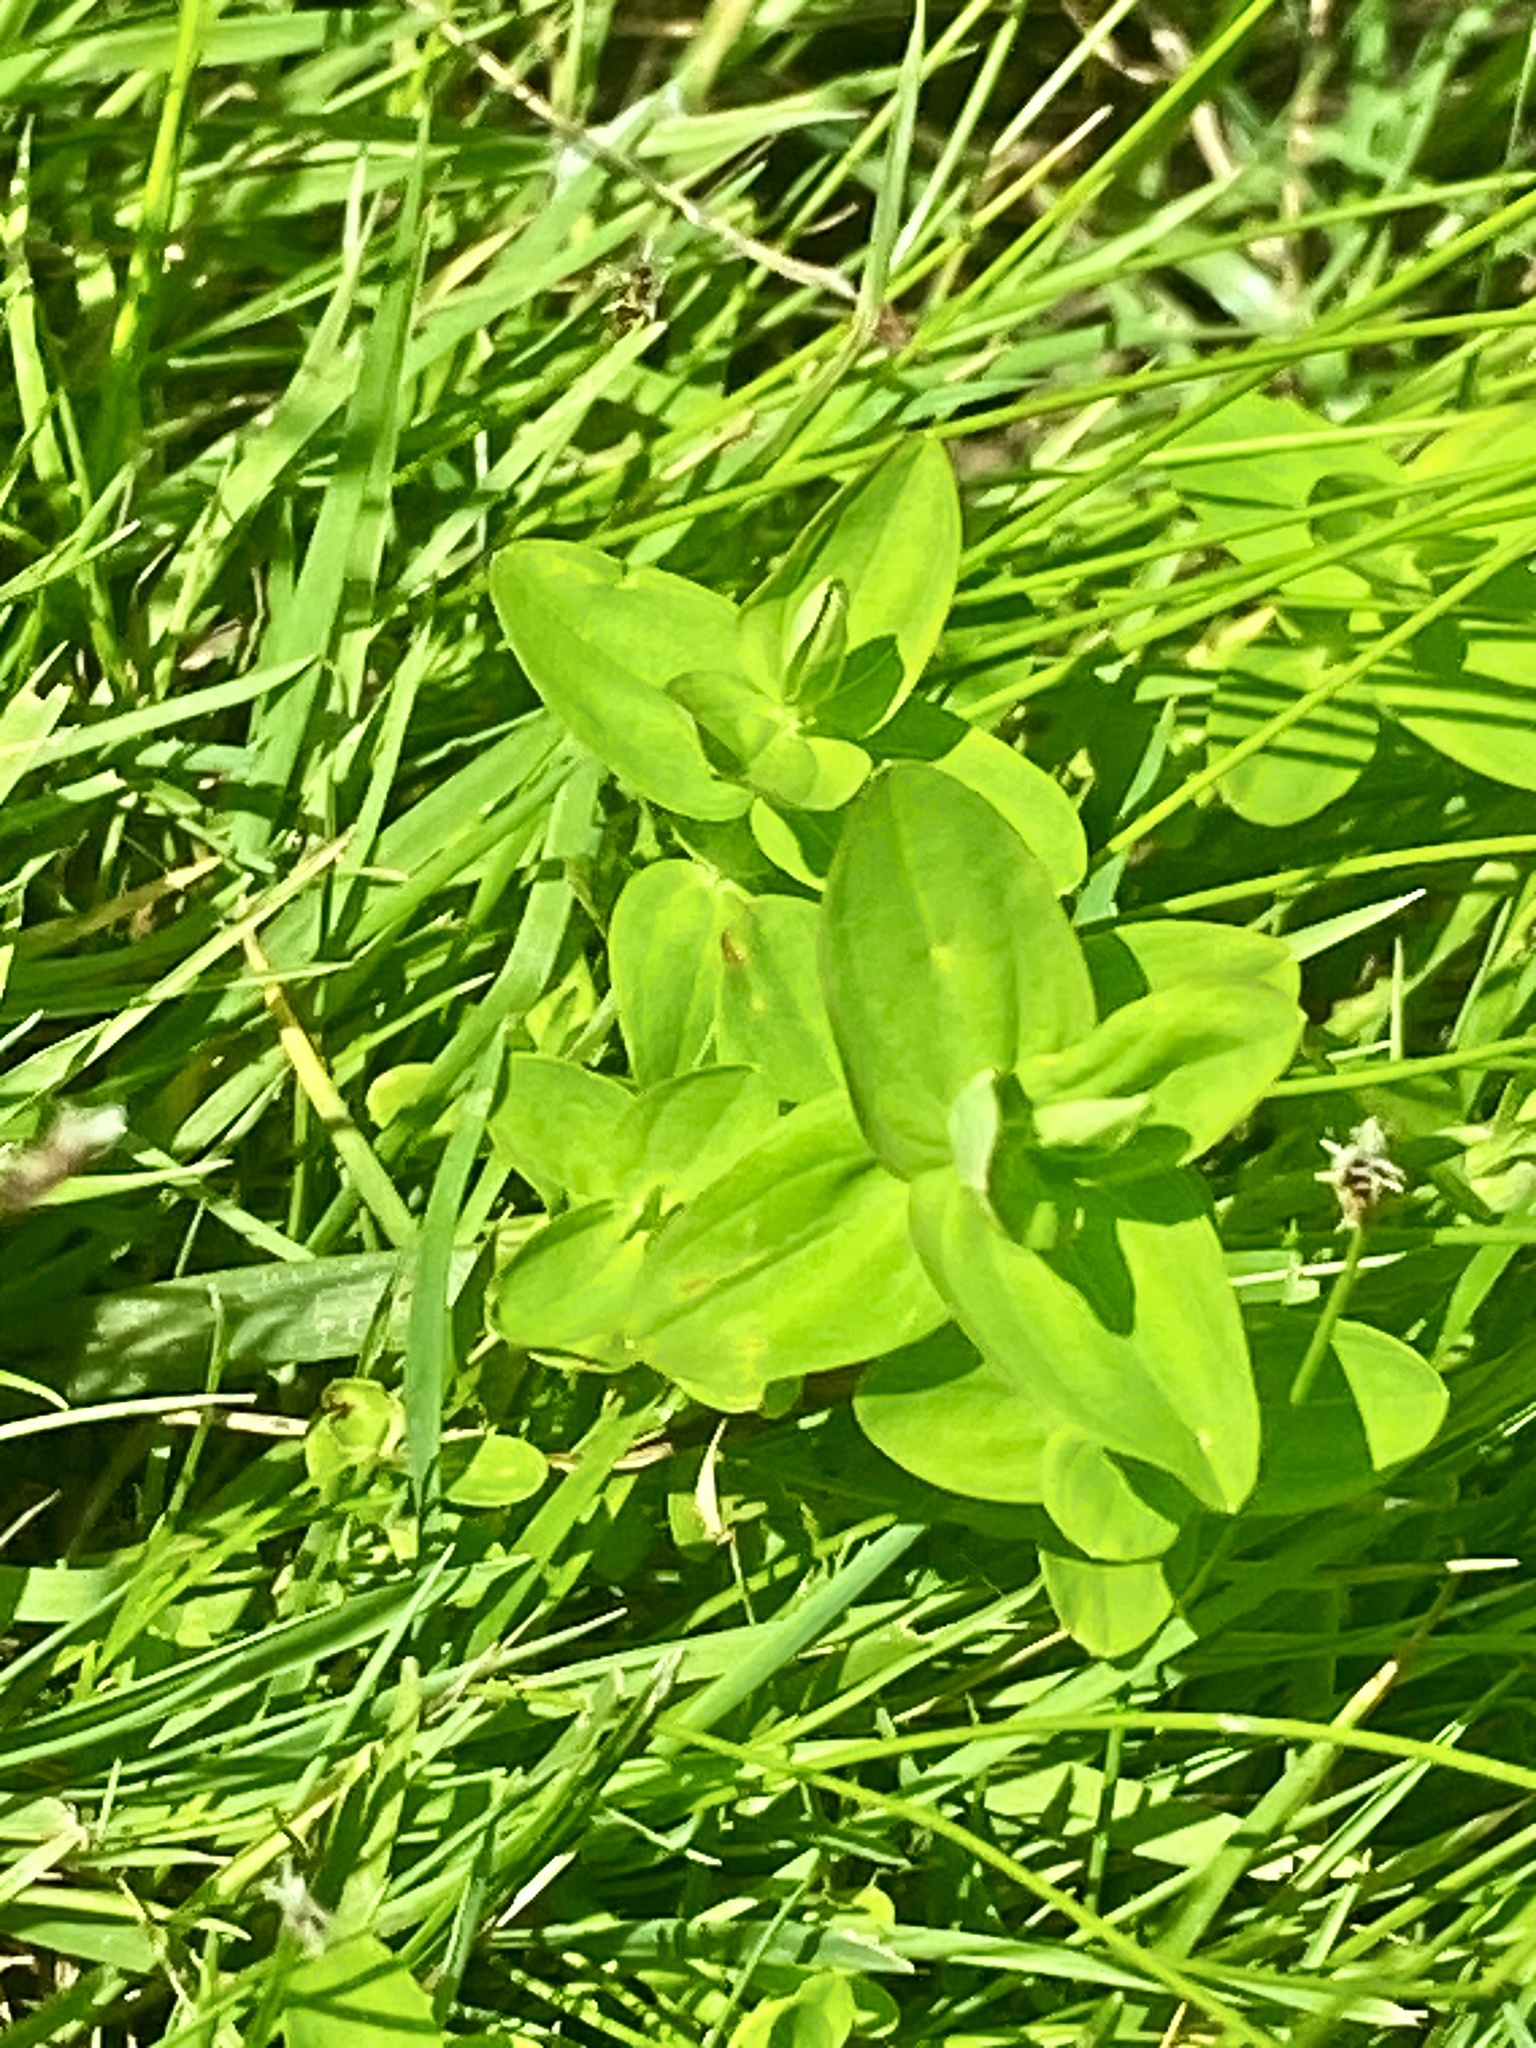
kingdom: Plantae
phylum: Tracheophyta
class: Magnoliopsida
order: Malpighiales
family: Hypericaceae
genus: Hypericum
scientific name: Hypericum mutilum
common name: Dwarf st. john's-wort
